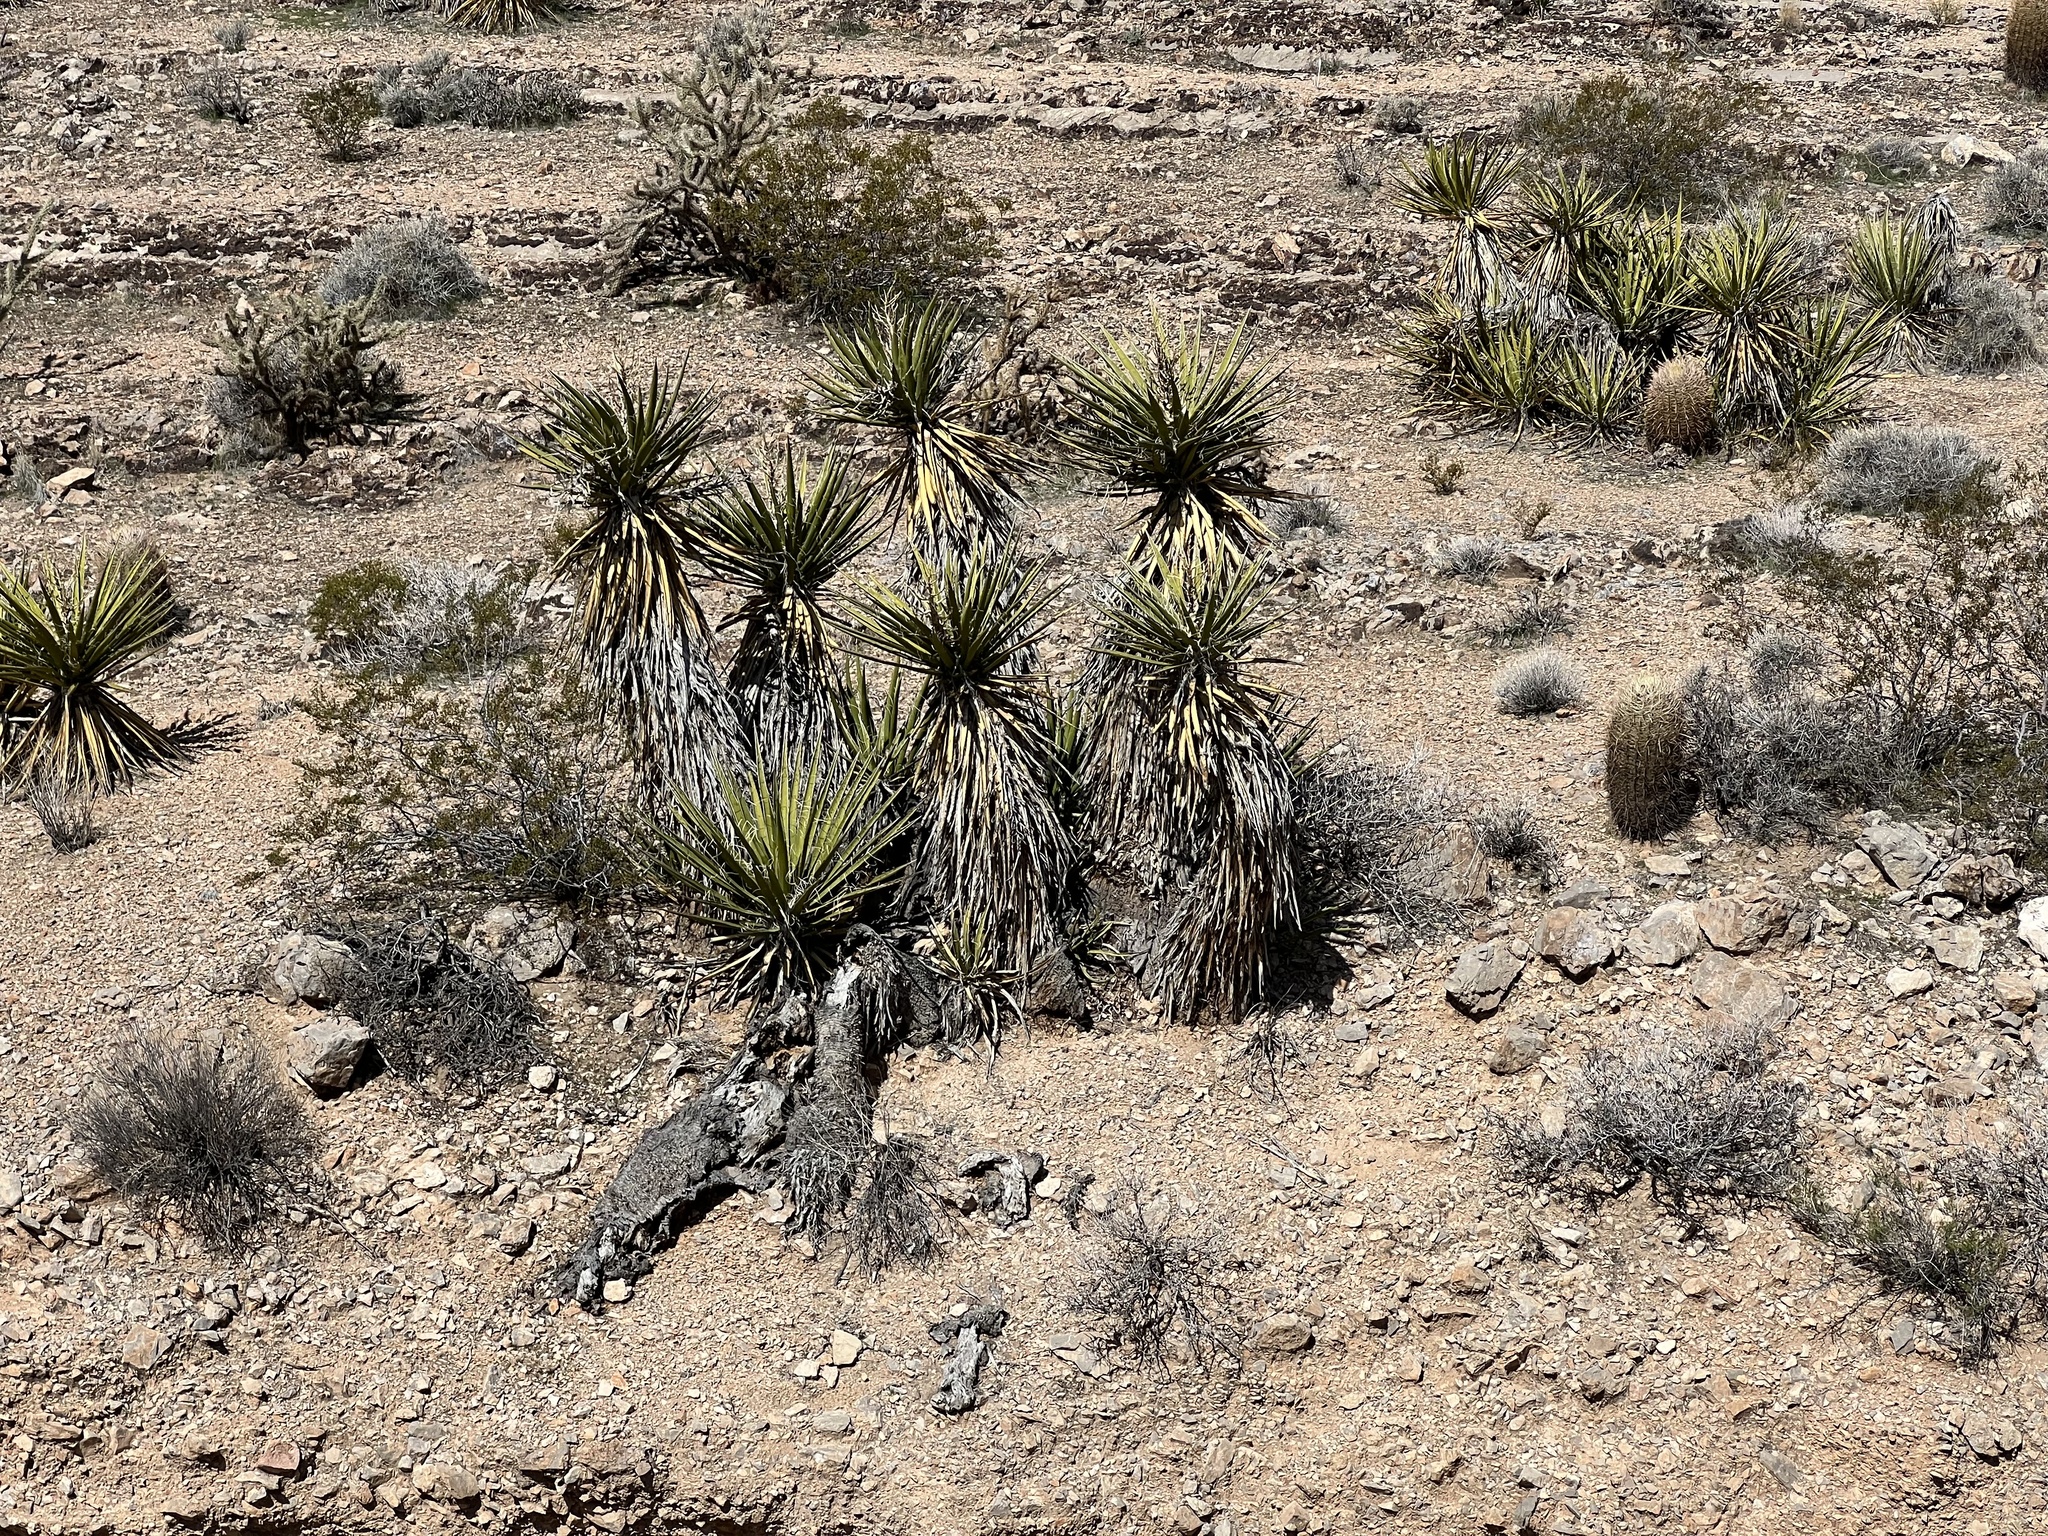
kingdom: Plantae
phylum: Tracheophyta
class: Liliopsida
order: Asparagales
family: Asparagaceae
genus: Yucca
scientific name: Yucca schidigera
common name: Mojave yucca
